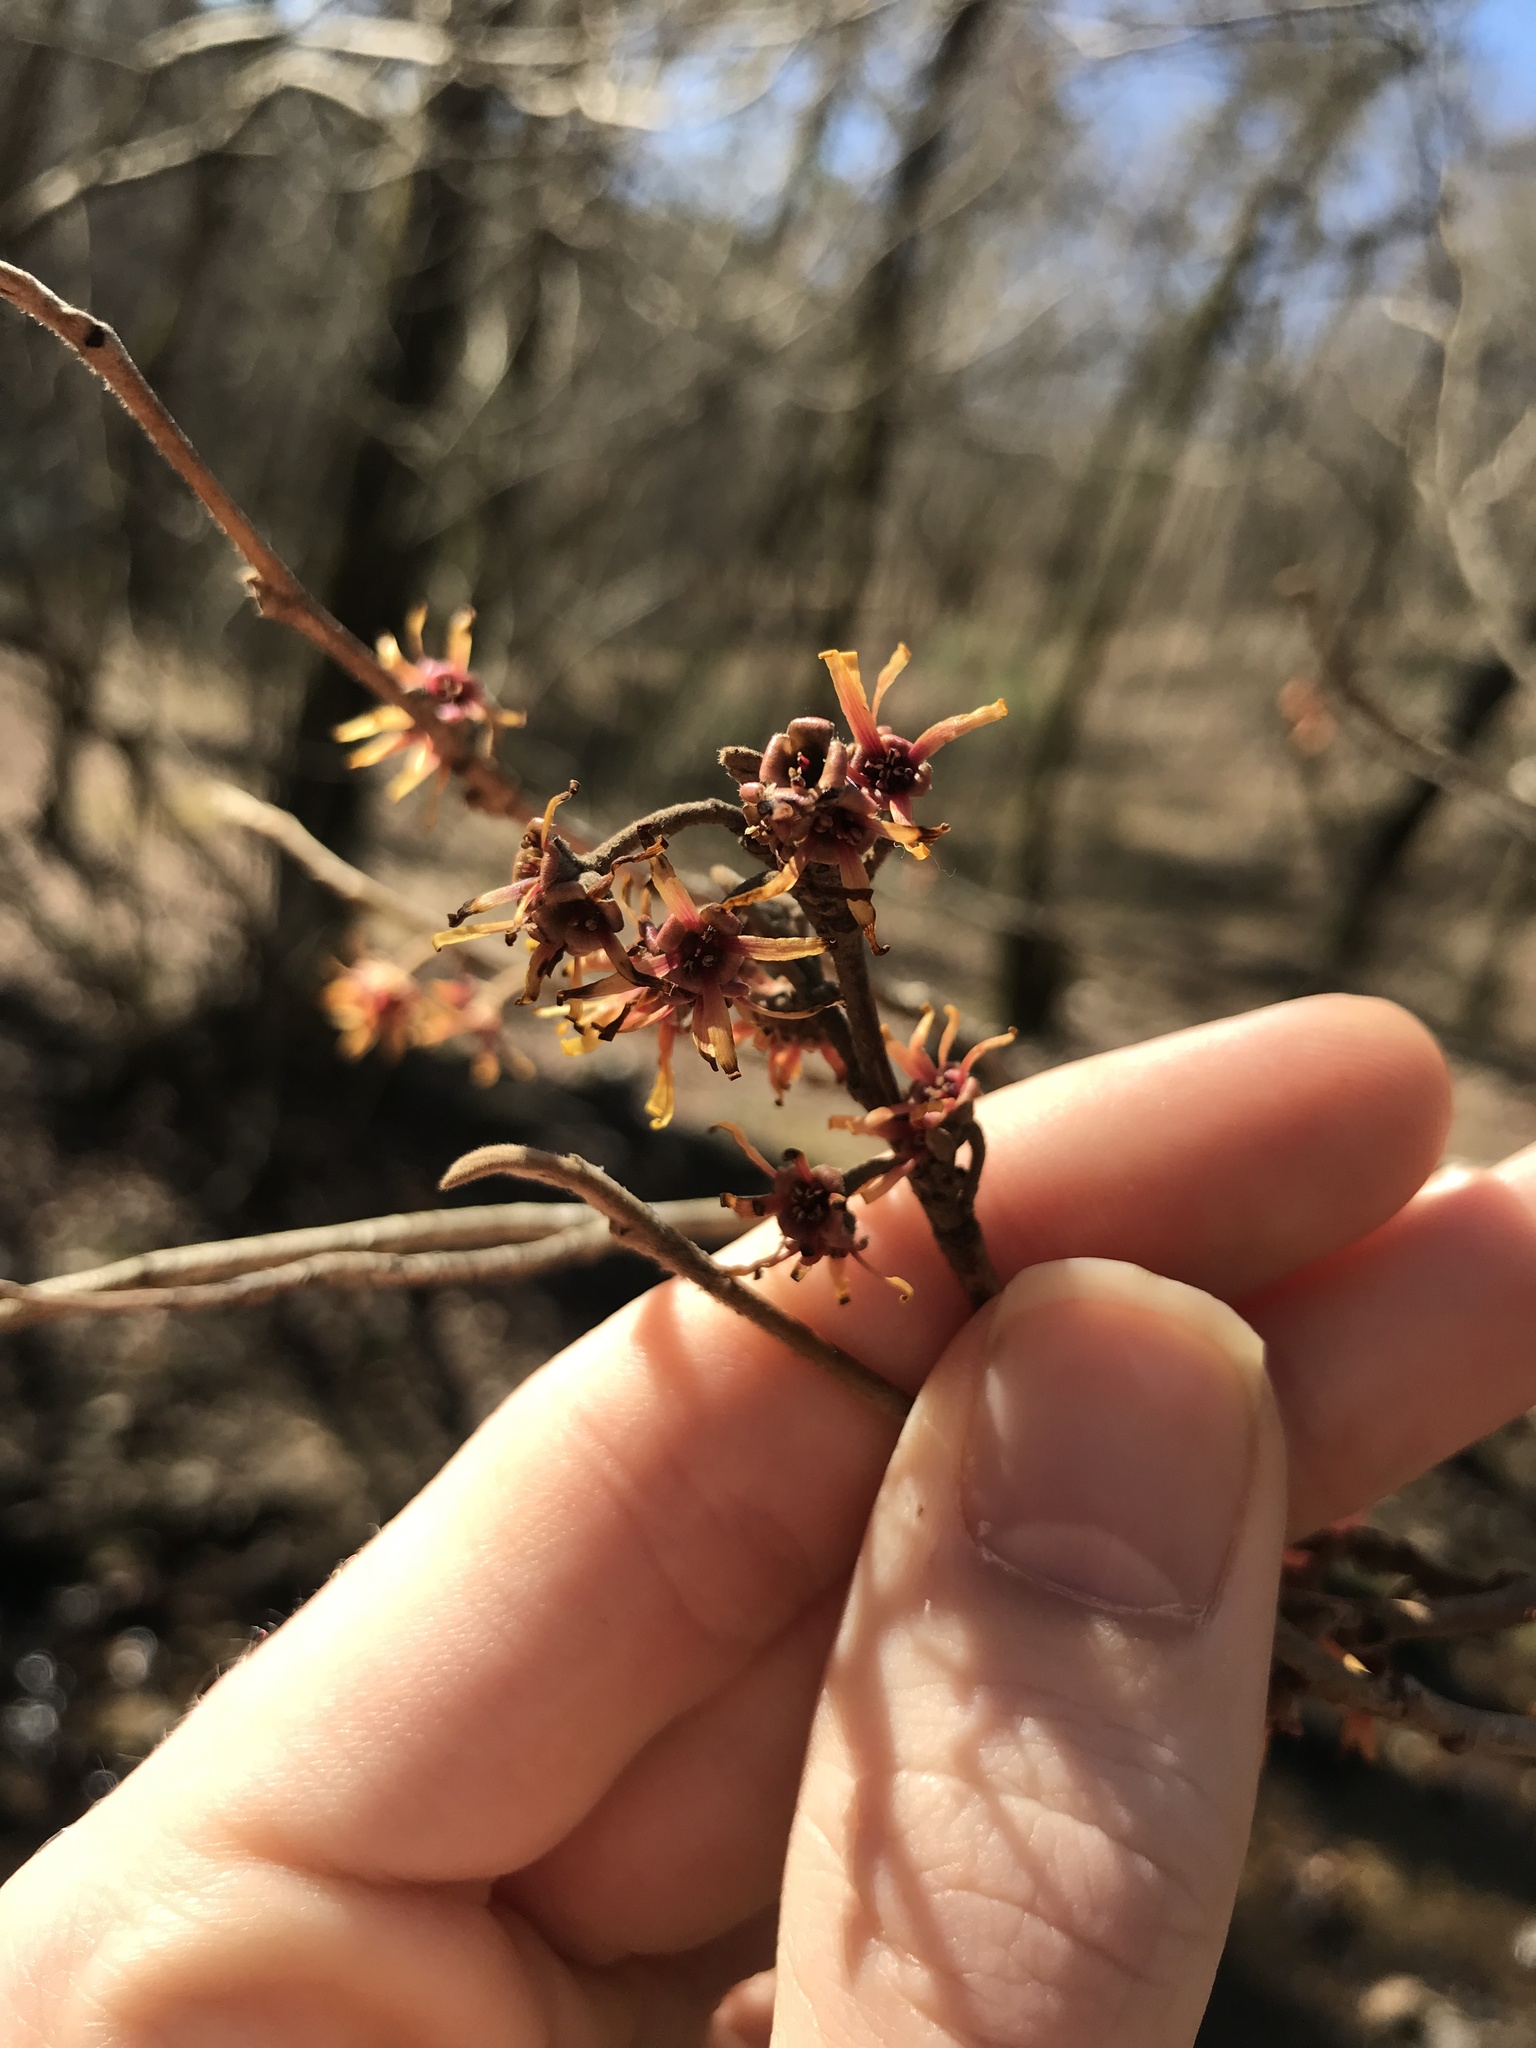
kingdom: Plantae
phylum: Tracheophyta
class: Magnoliopsida
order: Saxifragales
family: Hamamelidaceae
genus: Hamamelis
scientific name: Hamamelis vernalis
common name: Ozark witch-hazel
